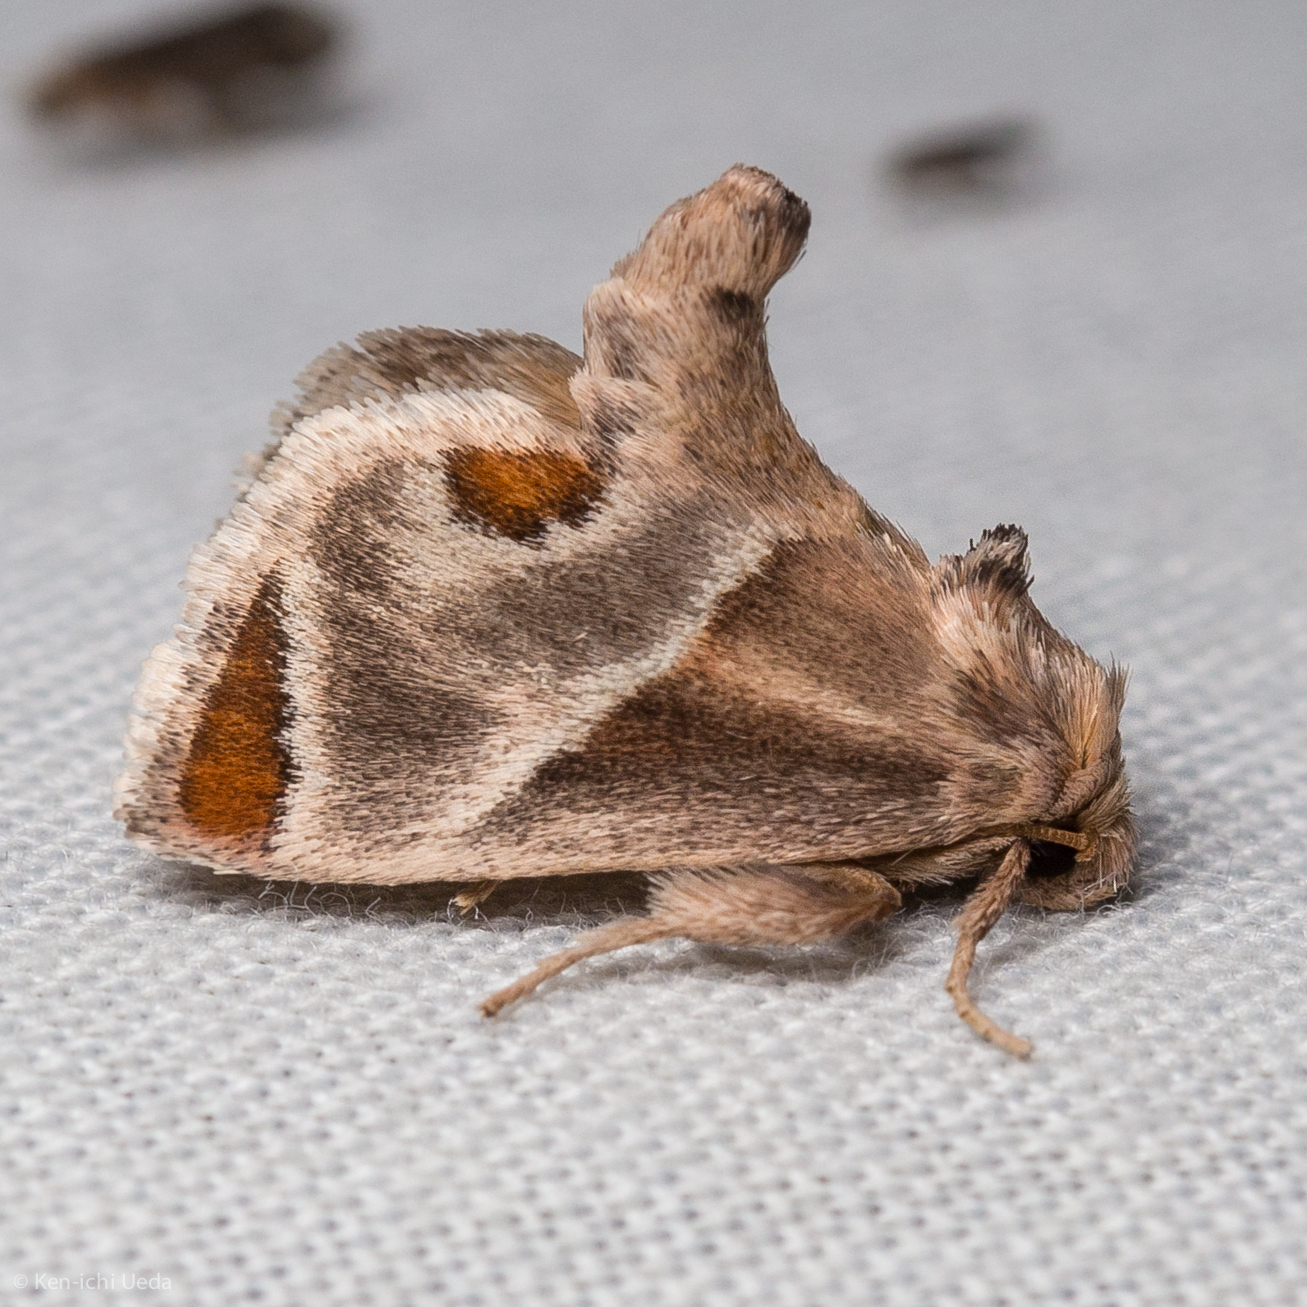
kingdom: Animalia
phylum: Arthropoda
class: Insecta
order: Lepidoptera
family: Limacodidae
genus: Apoda
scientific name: Apoda biguttata
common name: Shagreened slug moth
